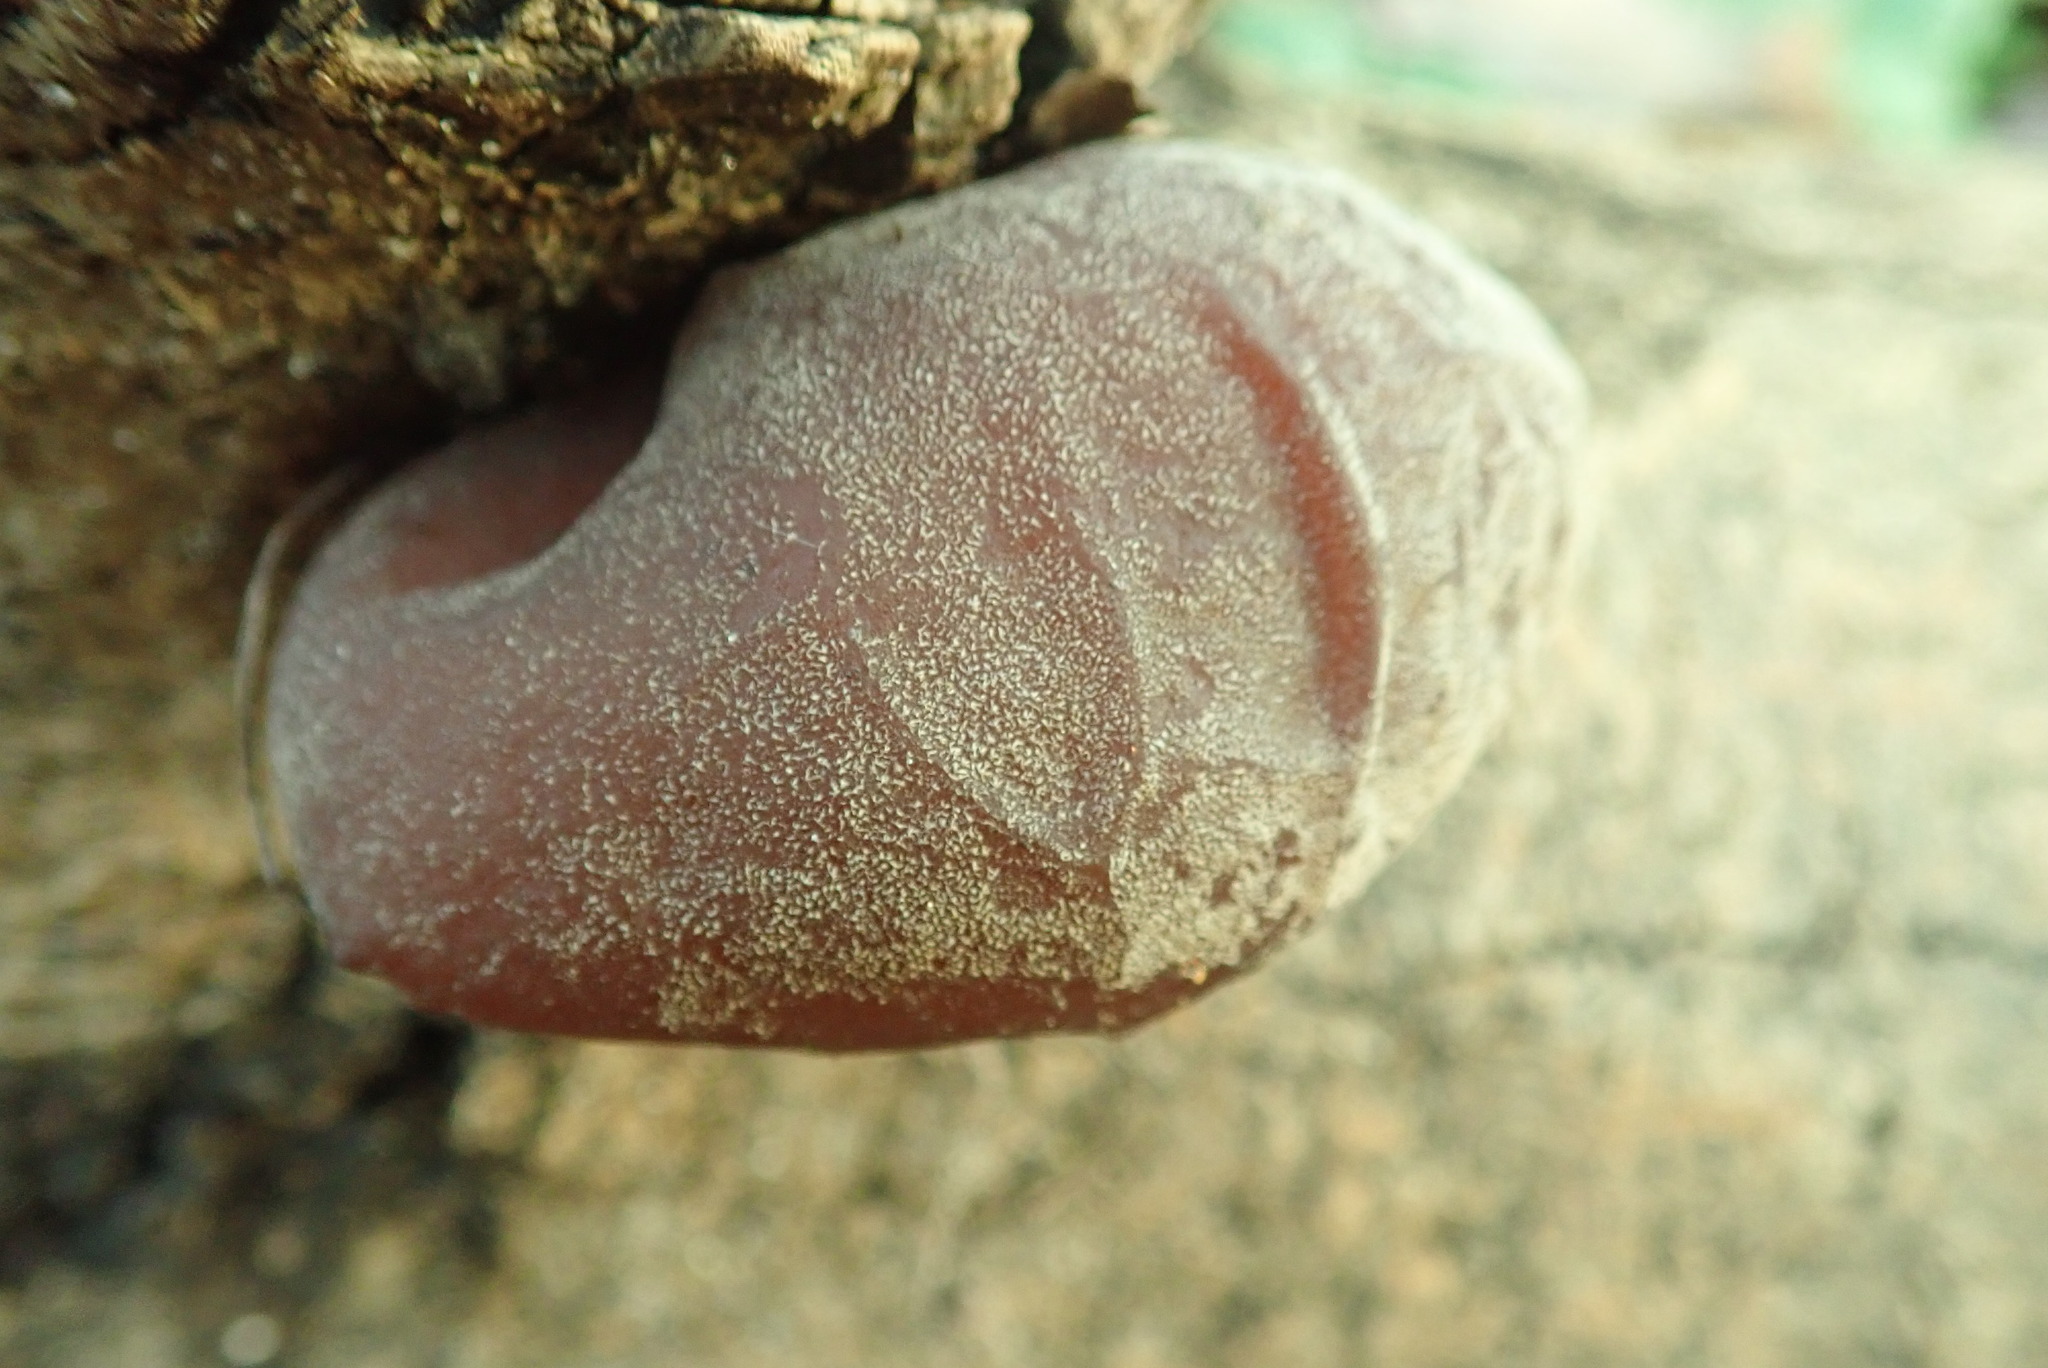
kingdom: Fungi
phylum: Basidiomycota
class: Agaricomycetes
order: Auriculariales
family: Auriculariaceae
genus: Auricularia
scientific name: Auricularia auricula-judae
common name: Jelly ear
